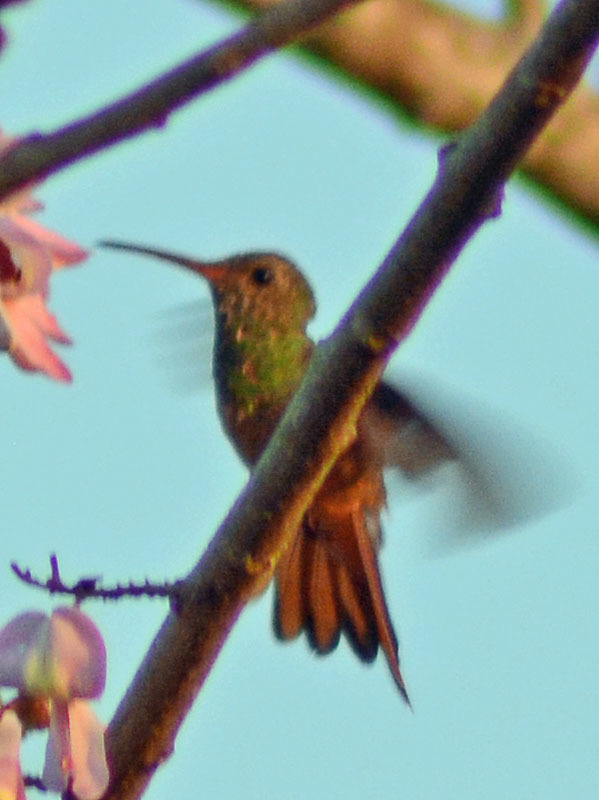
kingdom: Animalia
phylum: Chordata
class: Aves
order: Apodiformes
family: Trochilidae
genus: Amazilia
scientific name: Amazilia yucatanensis
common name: Buff-bellied hummingbird
